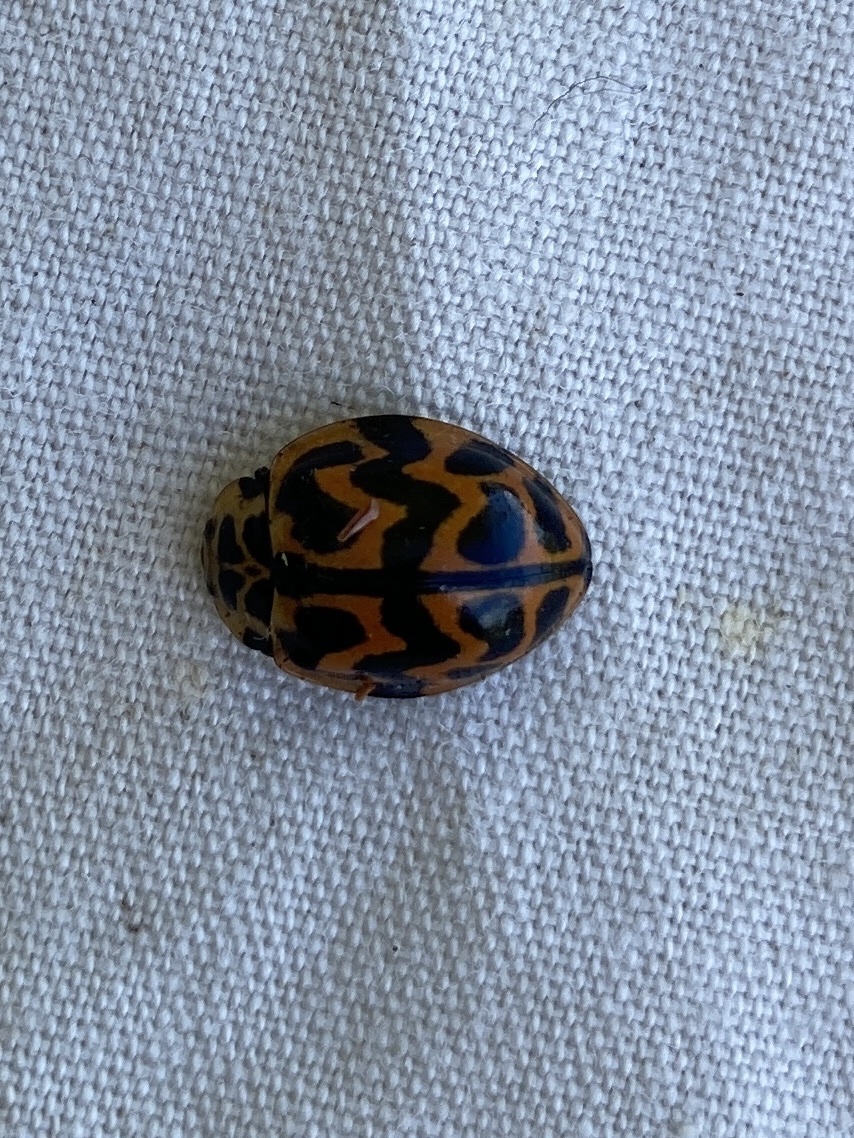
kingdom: Animalia
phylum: Arthropoda
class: Insecta
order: Coleoptera
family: Coccinellidae
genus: Cleobora
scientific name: Cleobora
